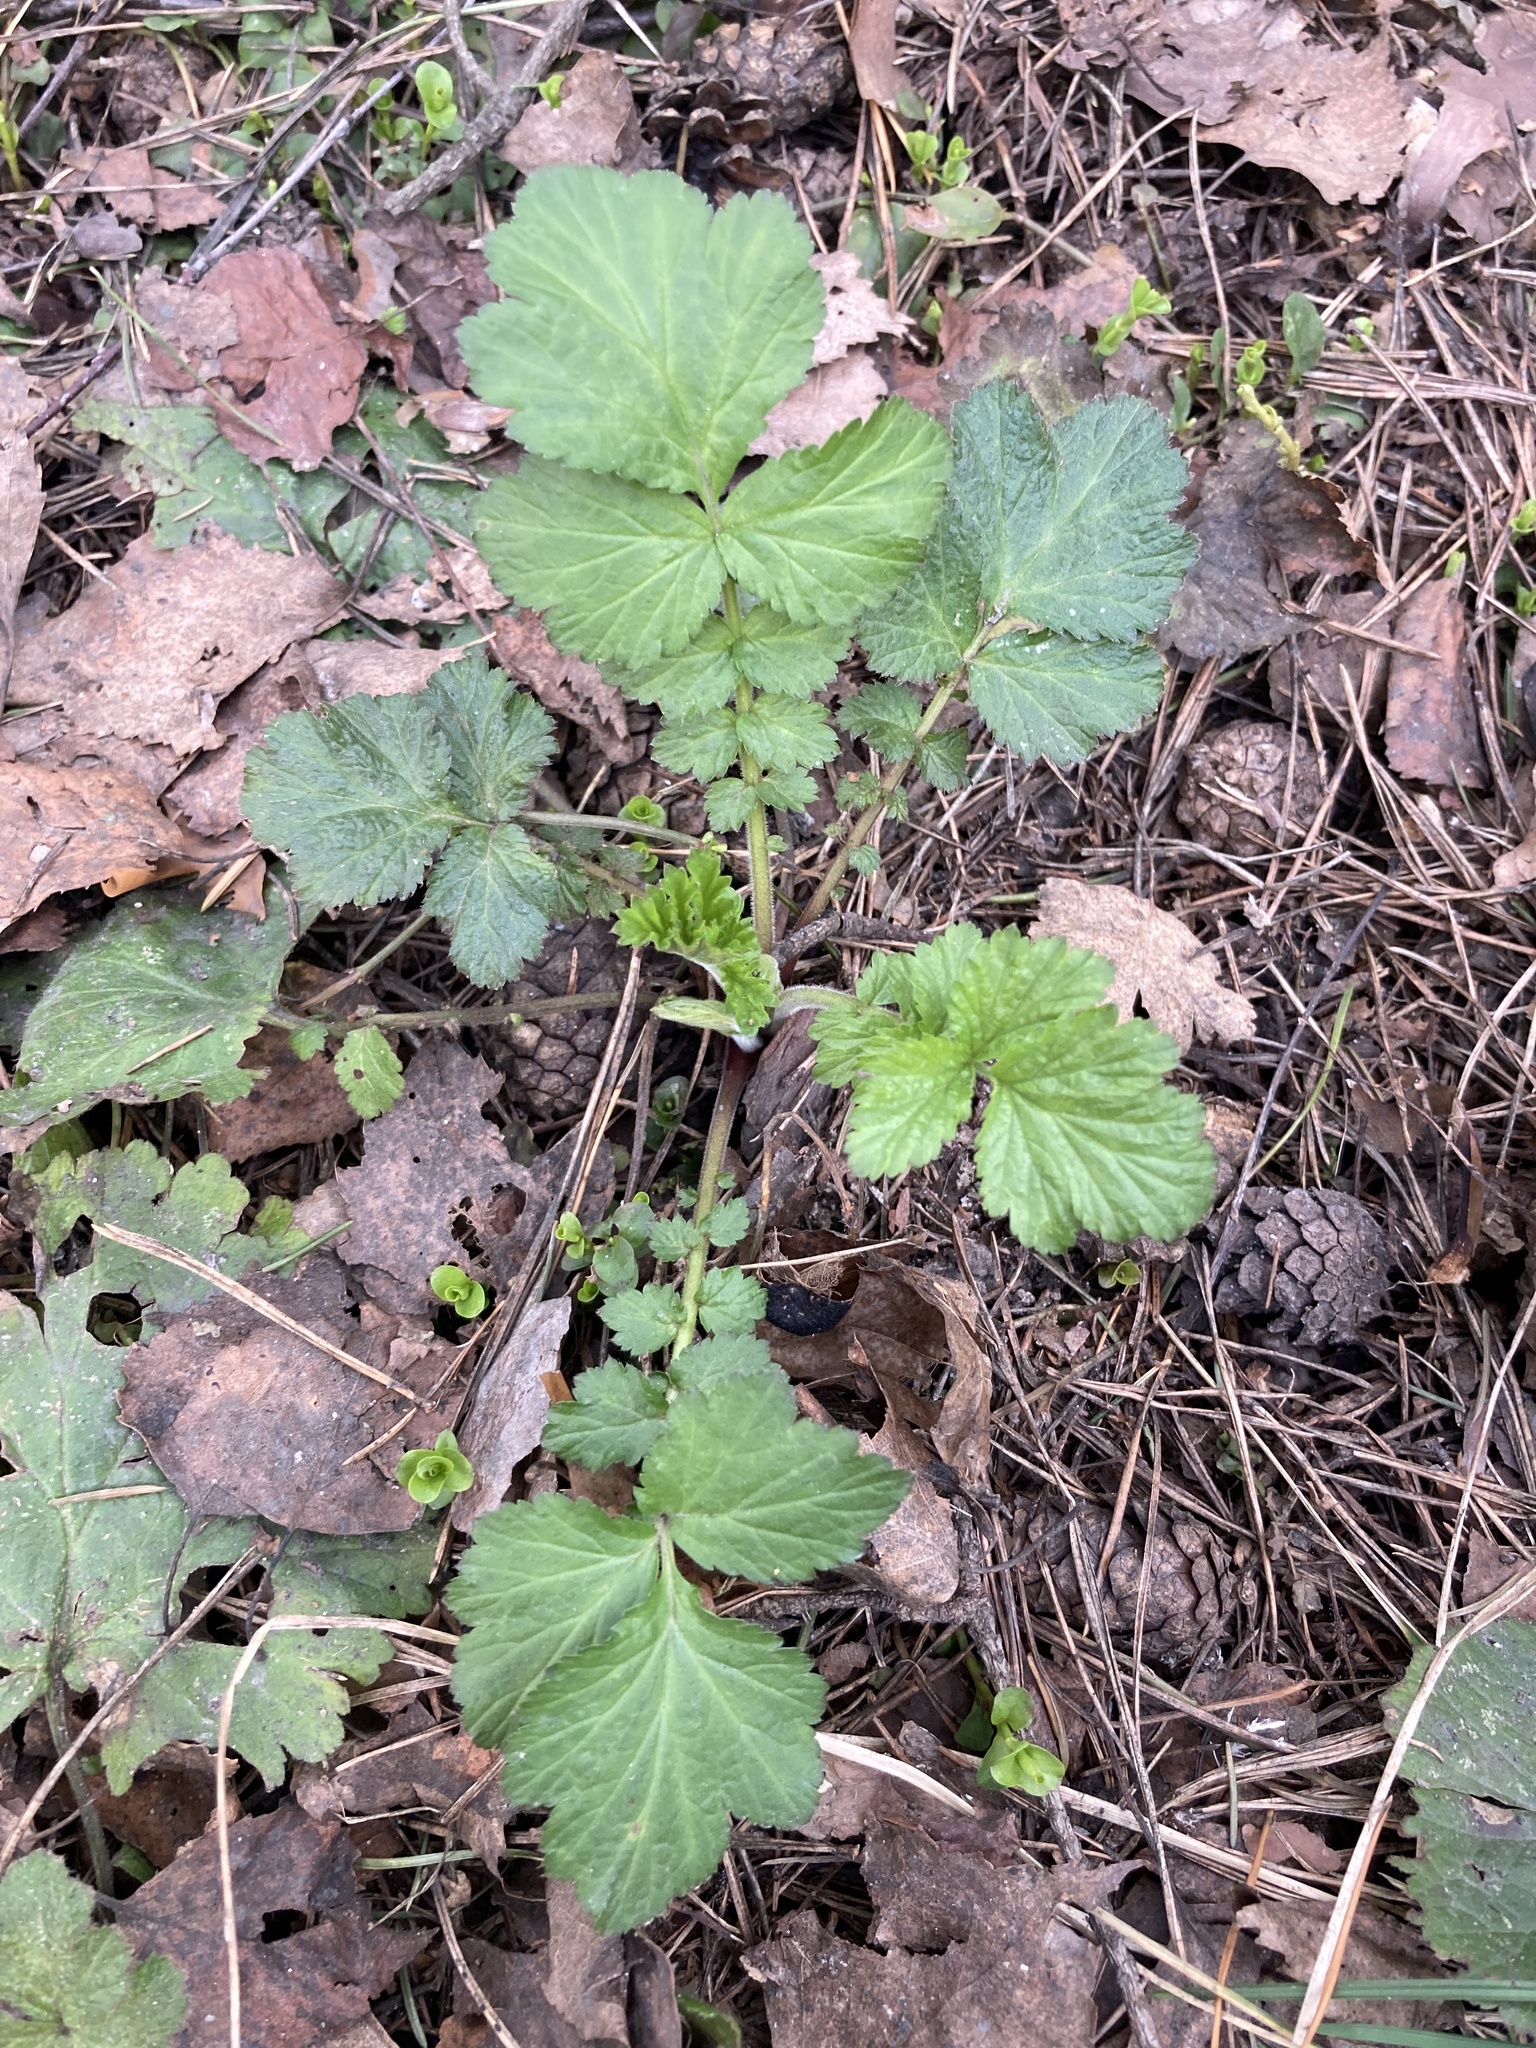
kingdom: Plantae
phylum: Tracheophyta
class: Magnoliopsida
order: Rosales
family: Rosaceae
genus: Geum
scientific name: Geum urbanum
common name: Wood avens
